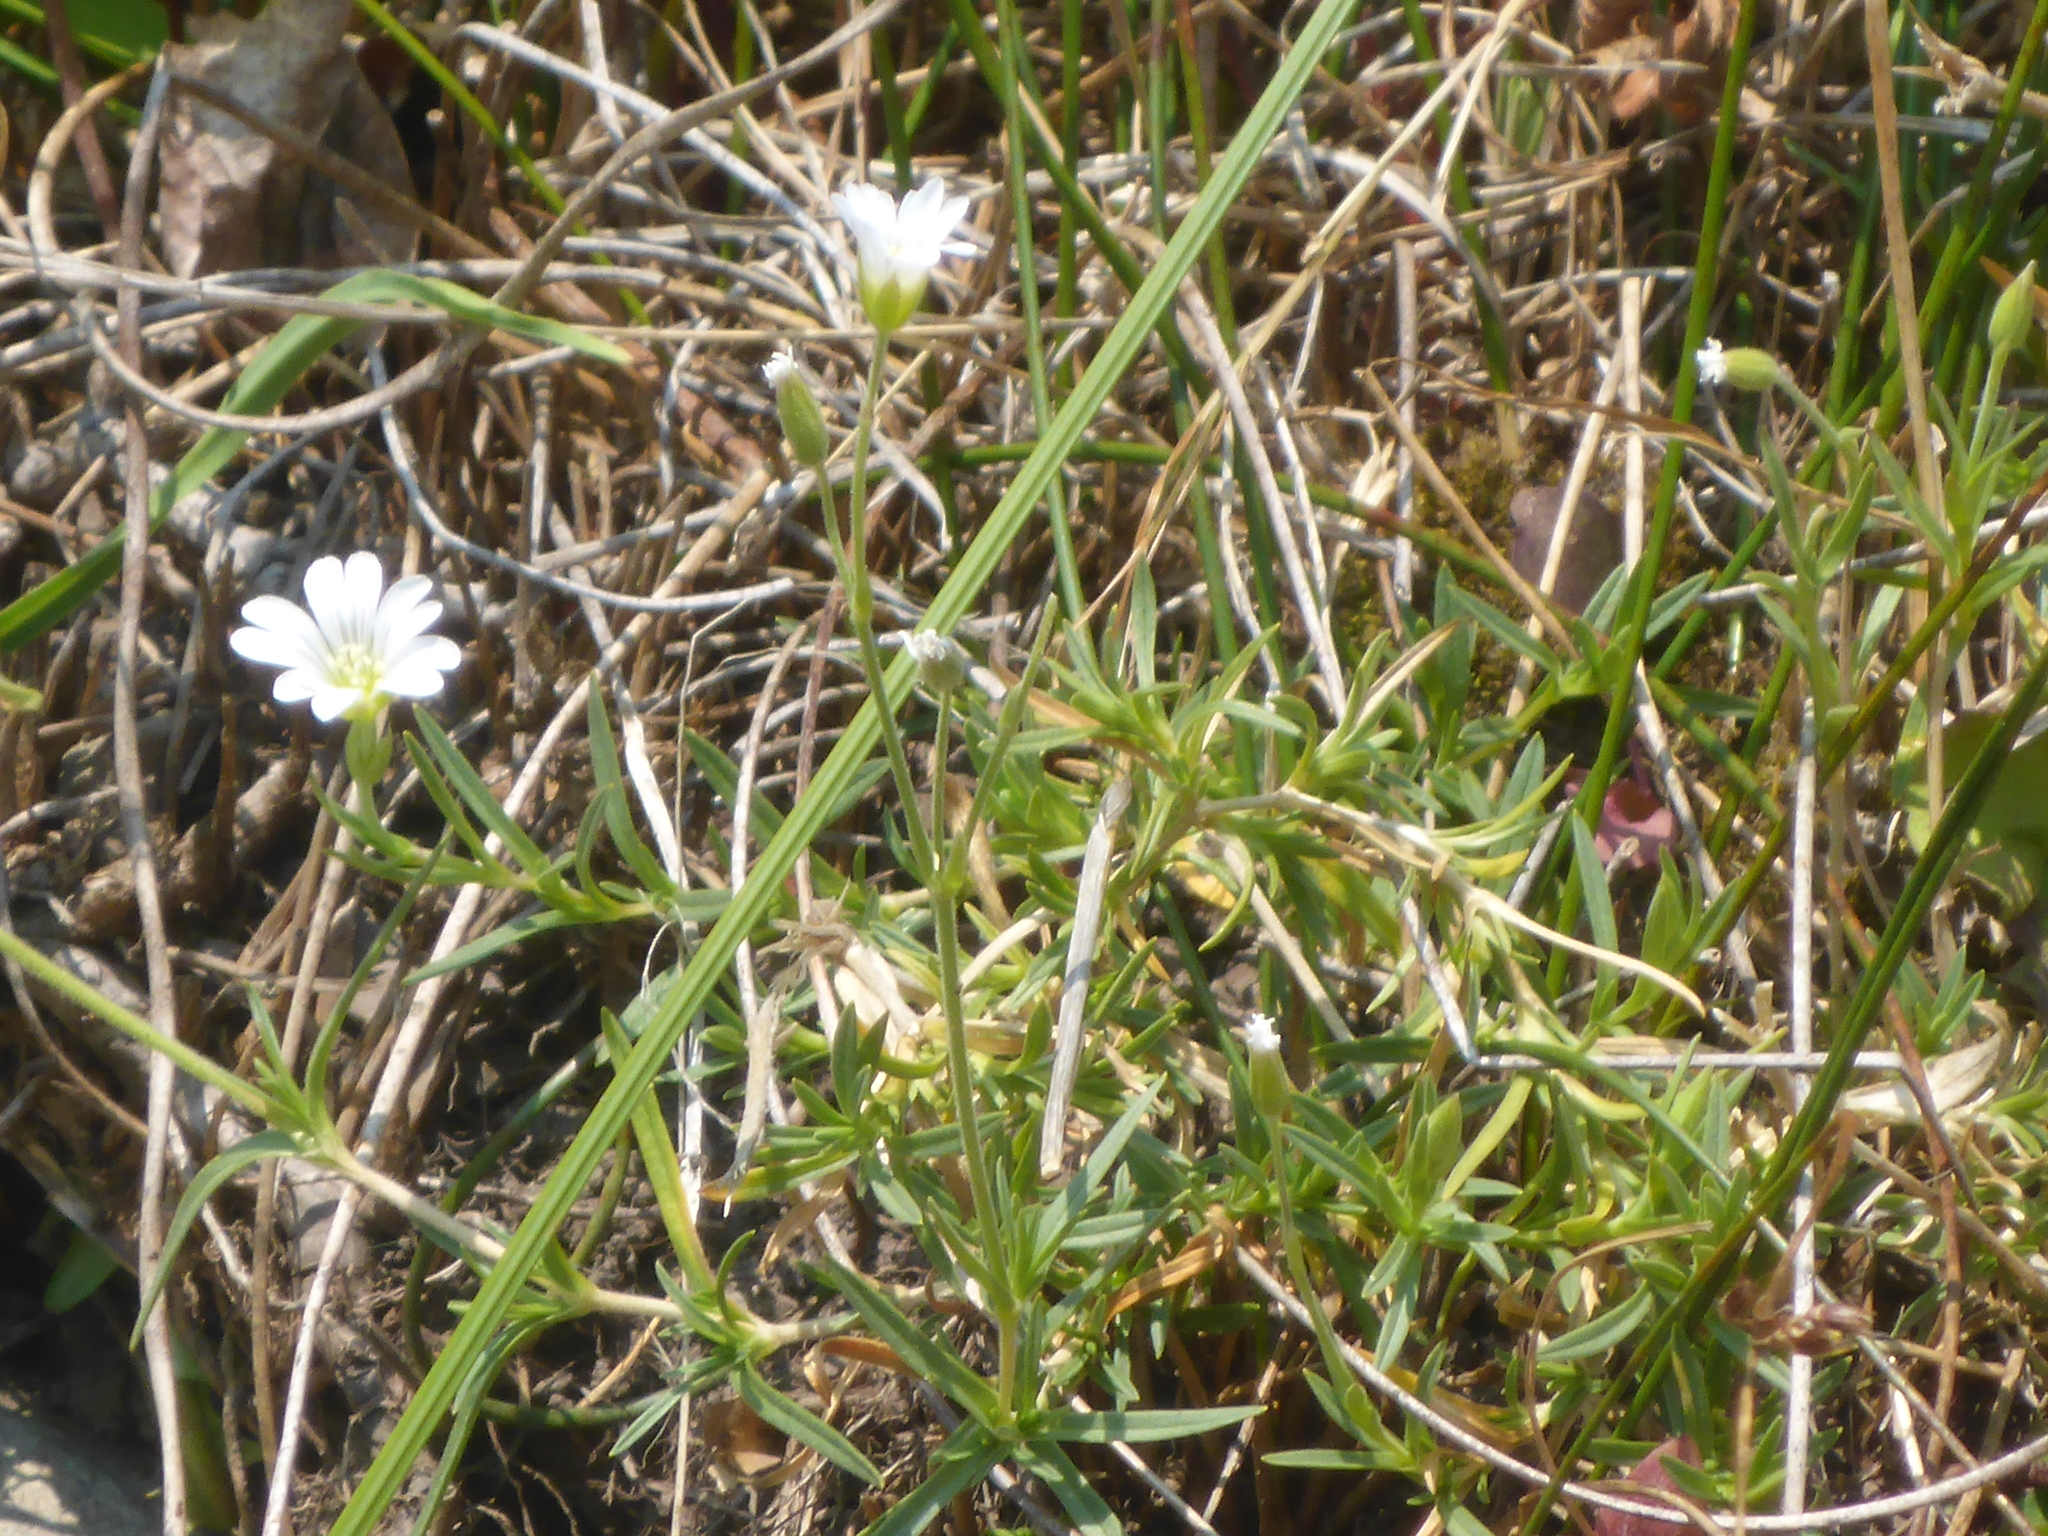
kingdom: Plantae
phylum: Tracheophyta
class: Magnoliopsida
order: Caryophyllales
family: Caryophyllaceae
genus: Cerastium
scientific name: Cerastium arvense
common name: Field mouse-ear
